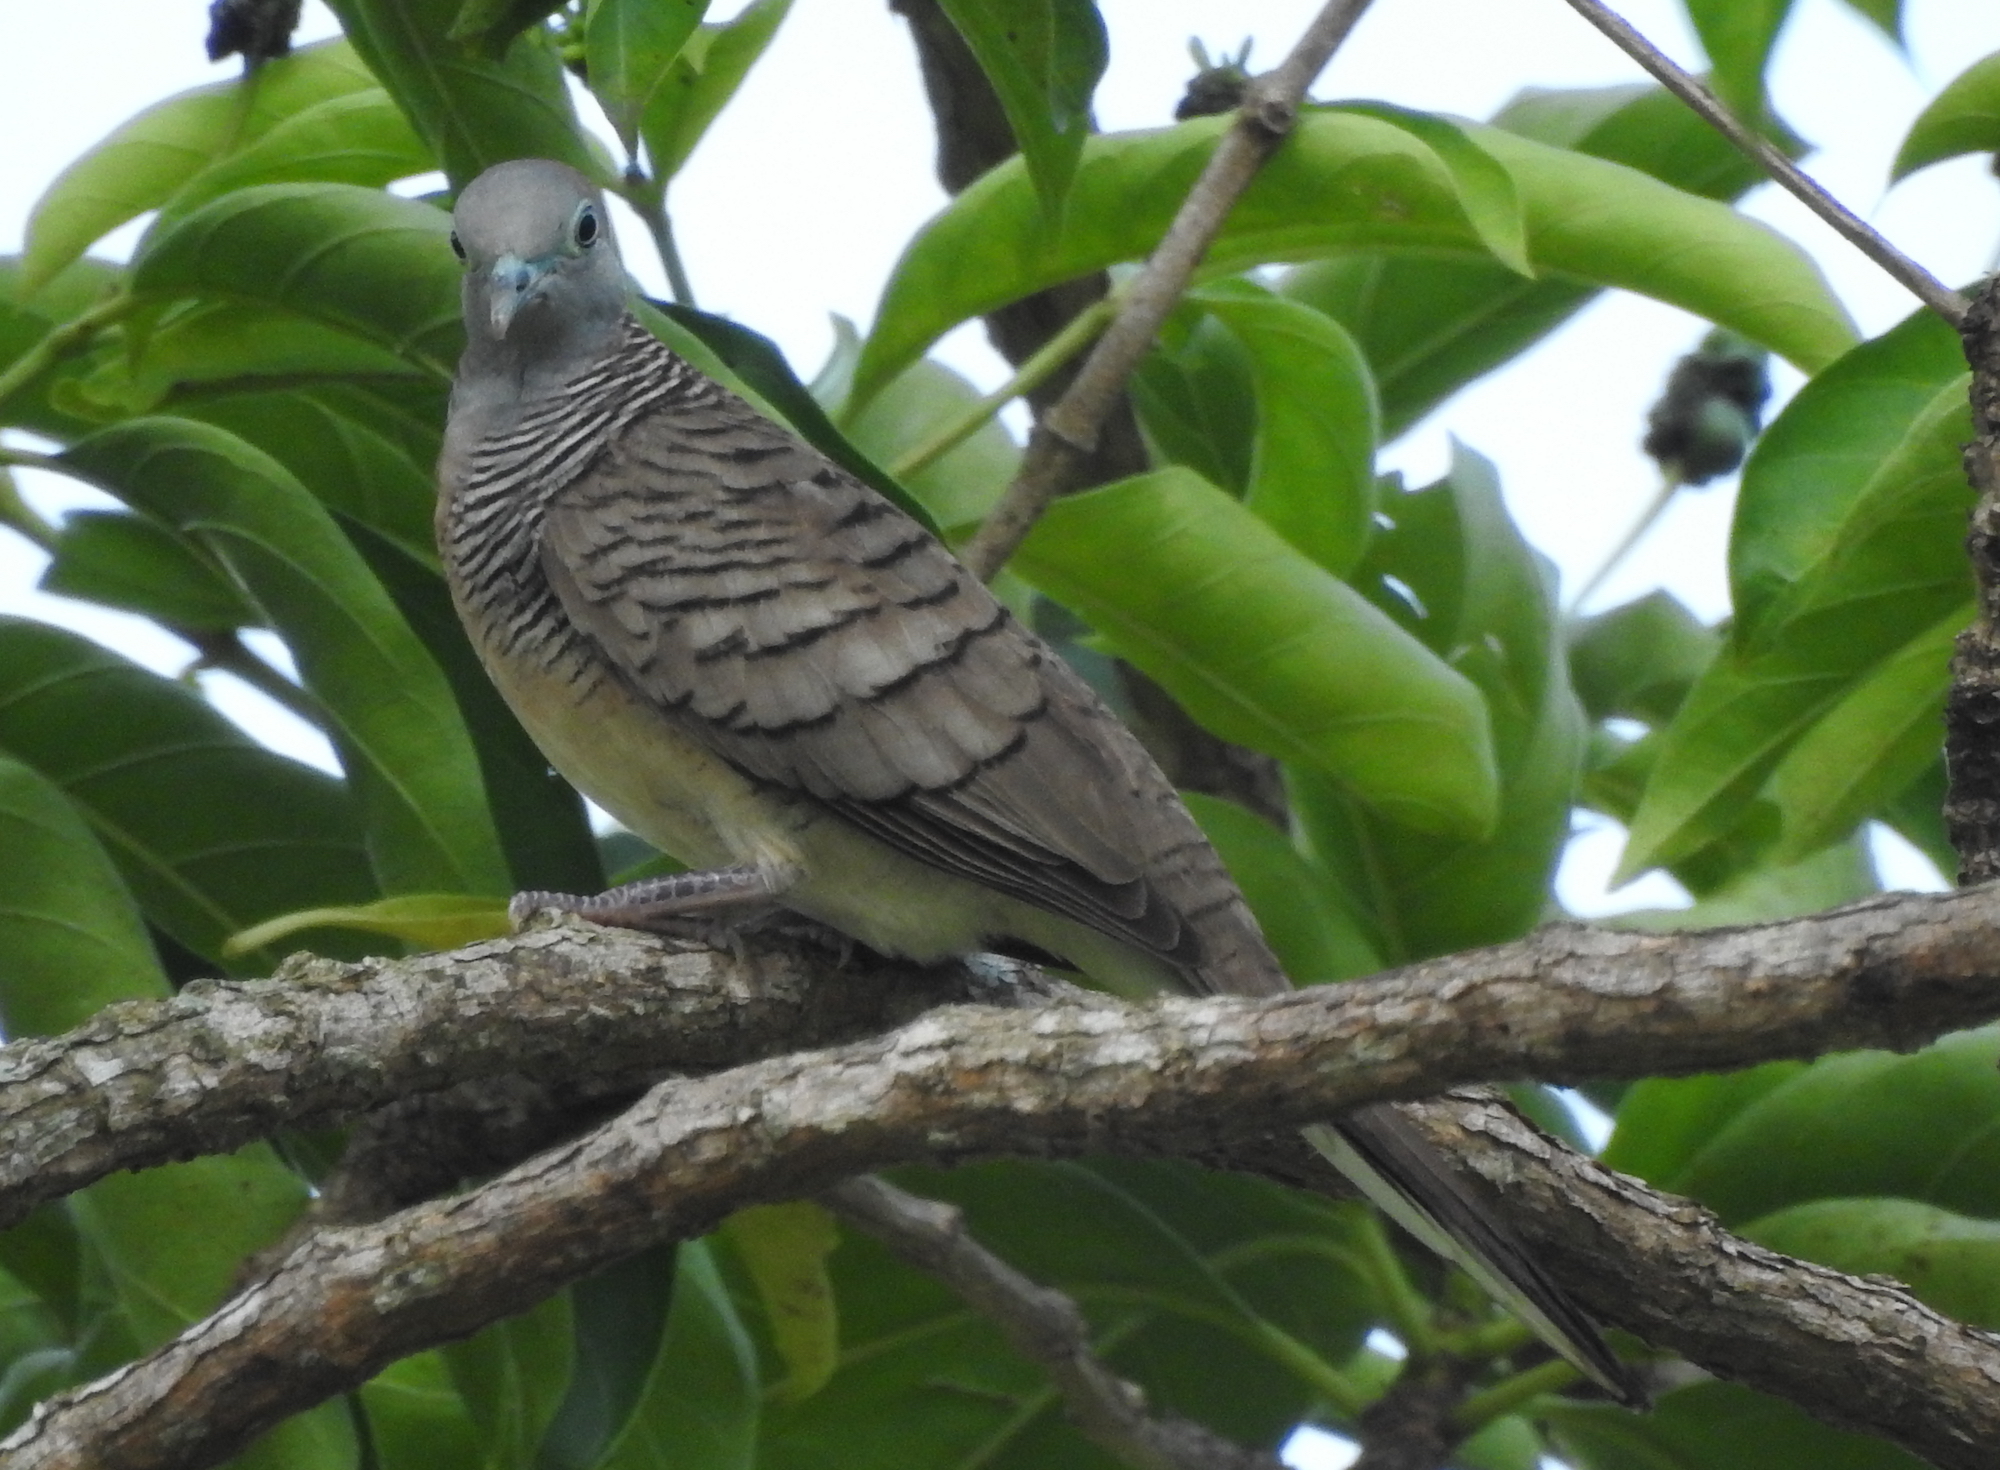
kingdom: Animalia
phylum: Chordata
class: Aves
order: Columbiformes
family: Columbidae
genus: Geopelia
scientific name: Geopelia striata
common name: Zebra dove
